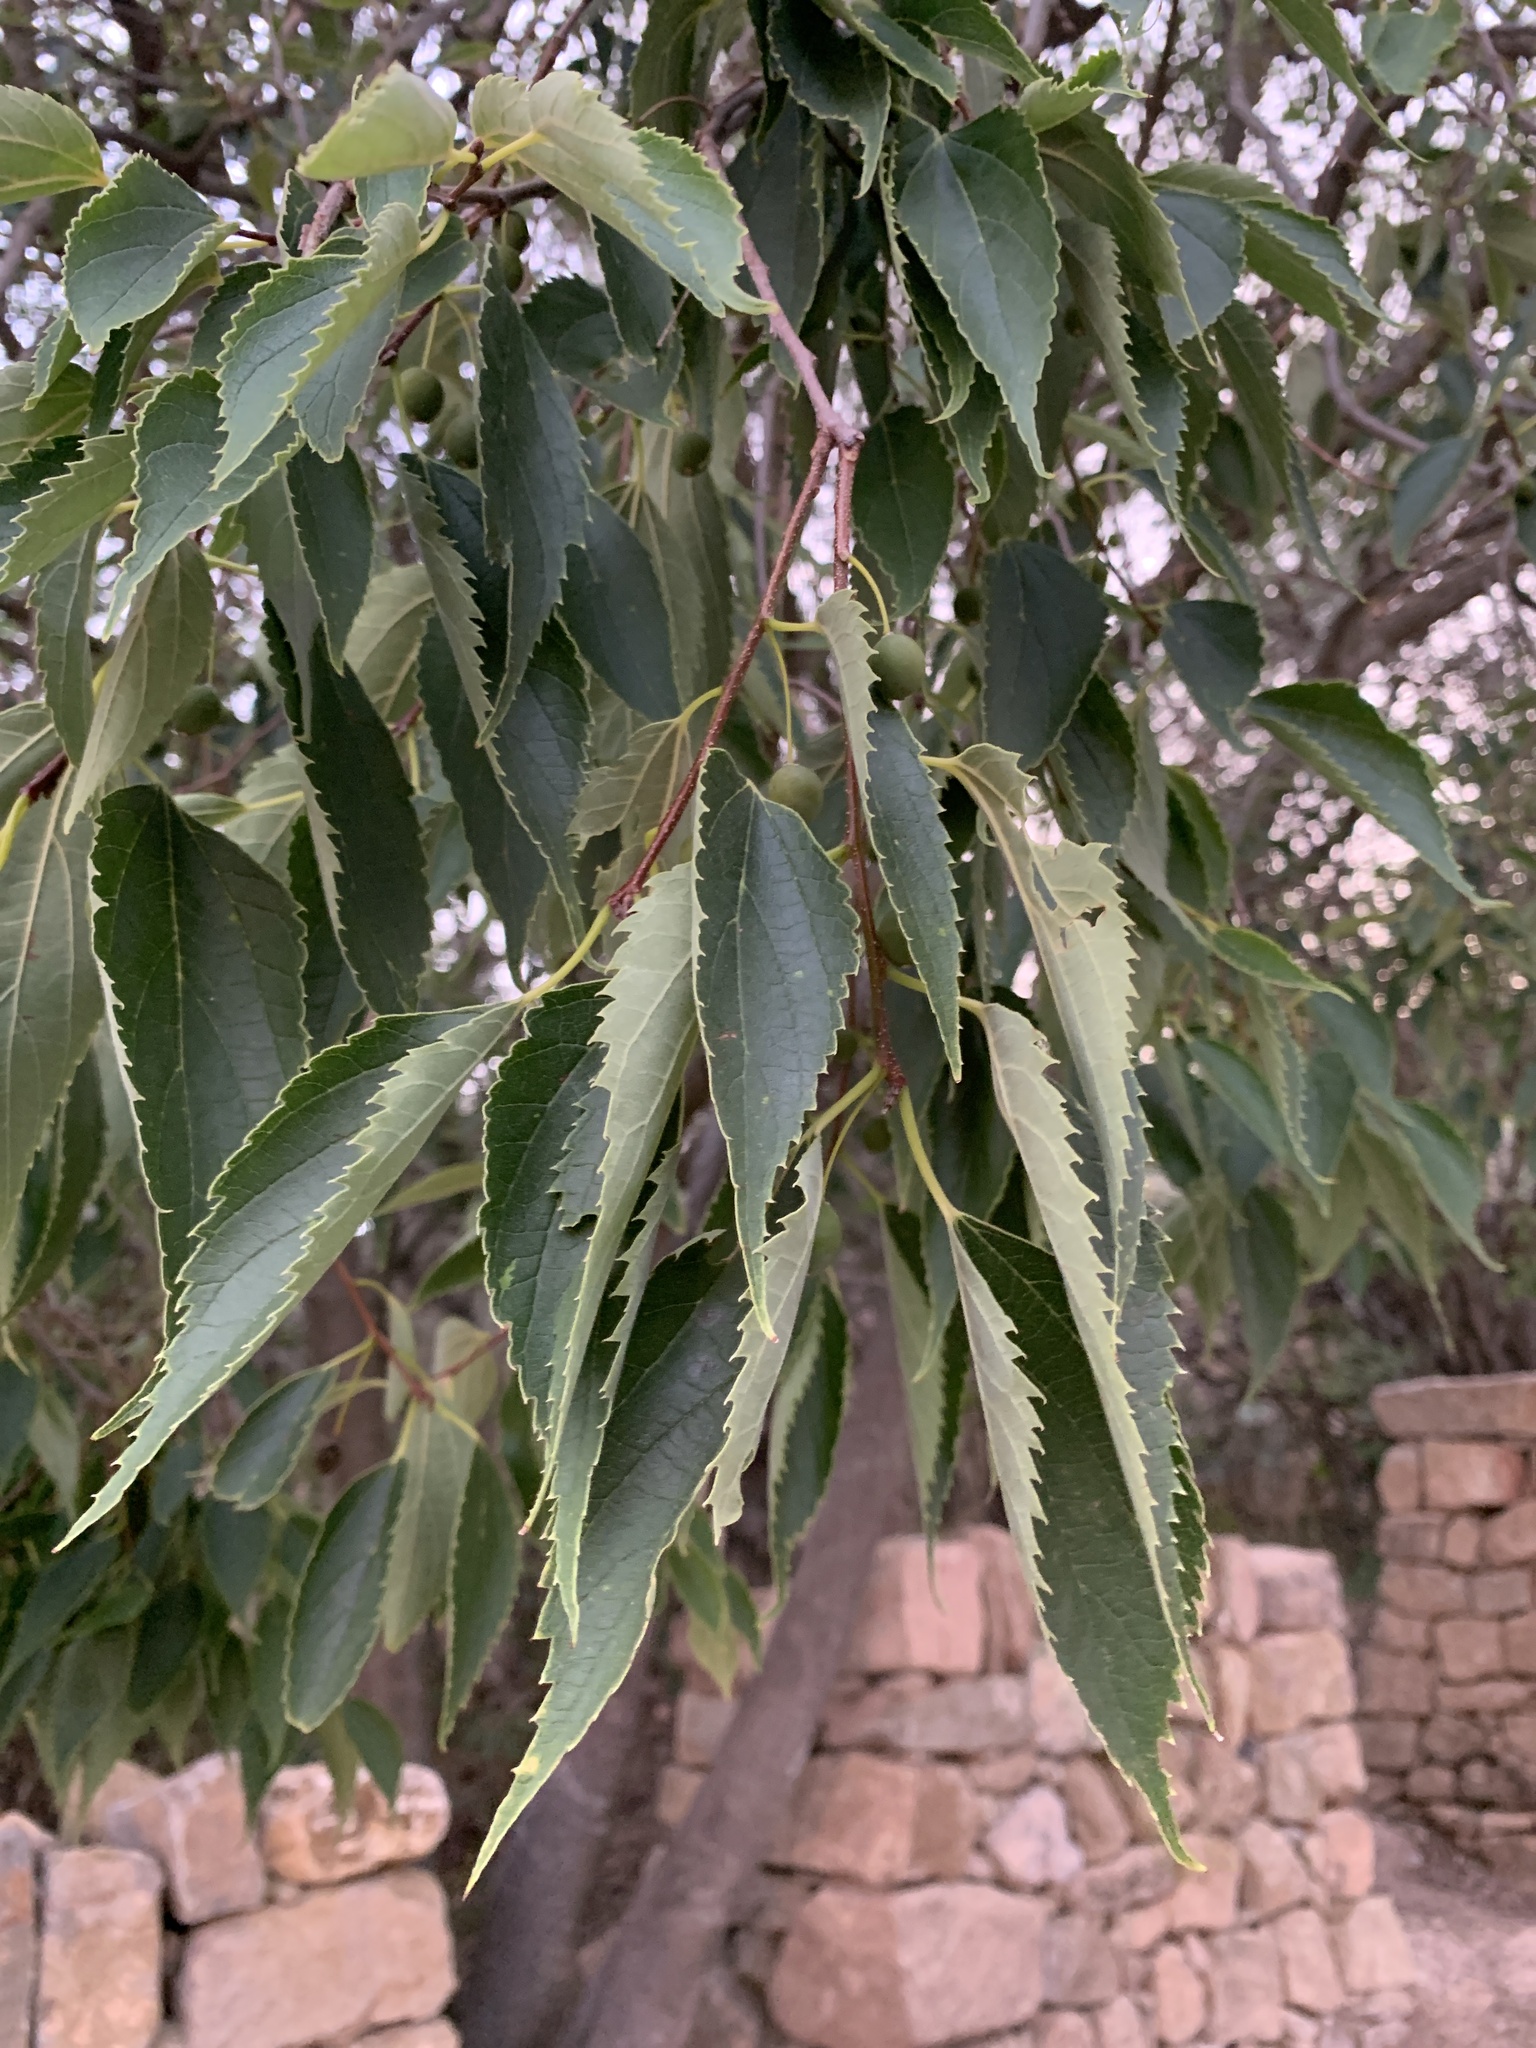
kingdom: Plantae
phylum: Tracheophyta
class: Magnoliopsida
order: Rosales
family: Cannabaceae
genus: Celtis
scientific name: Celtis australis
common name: European hackberry
